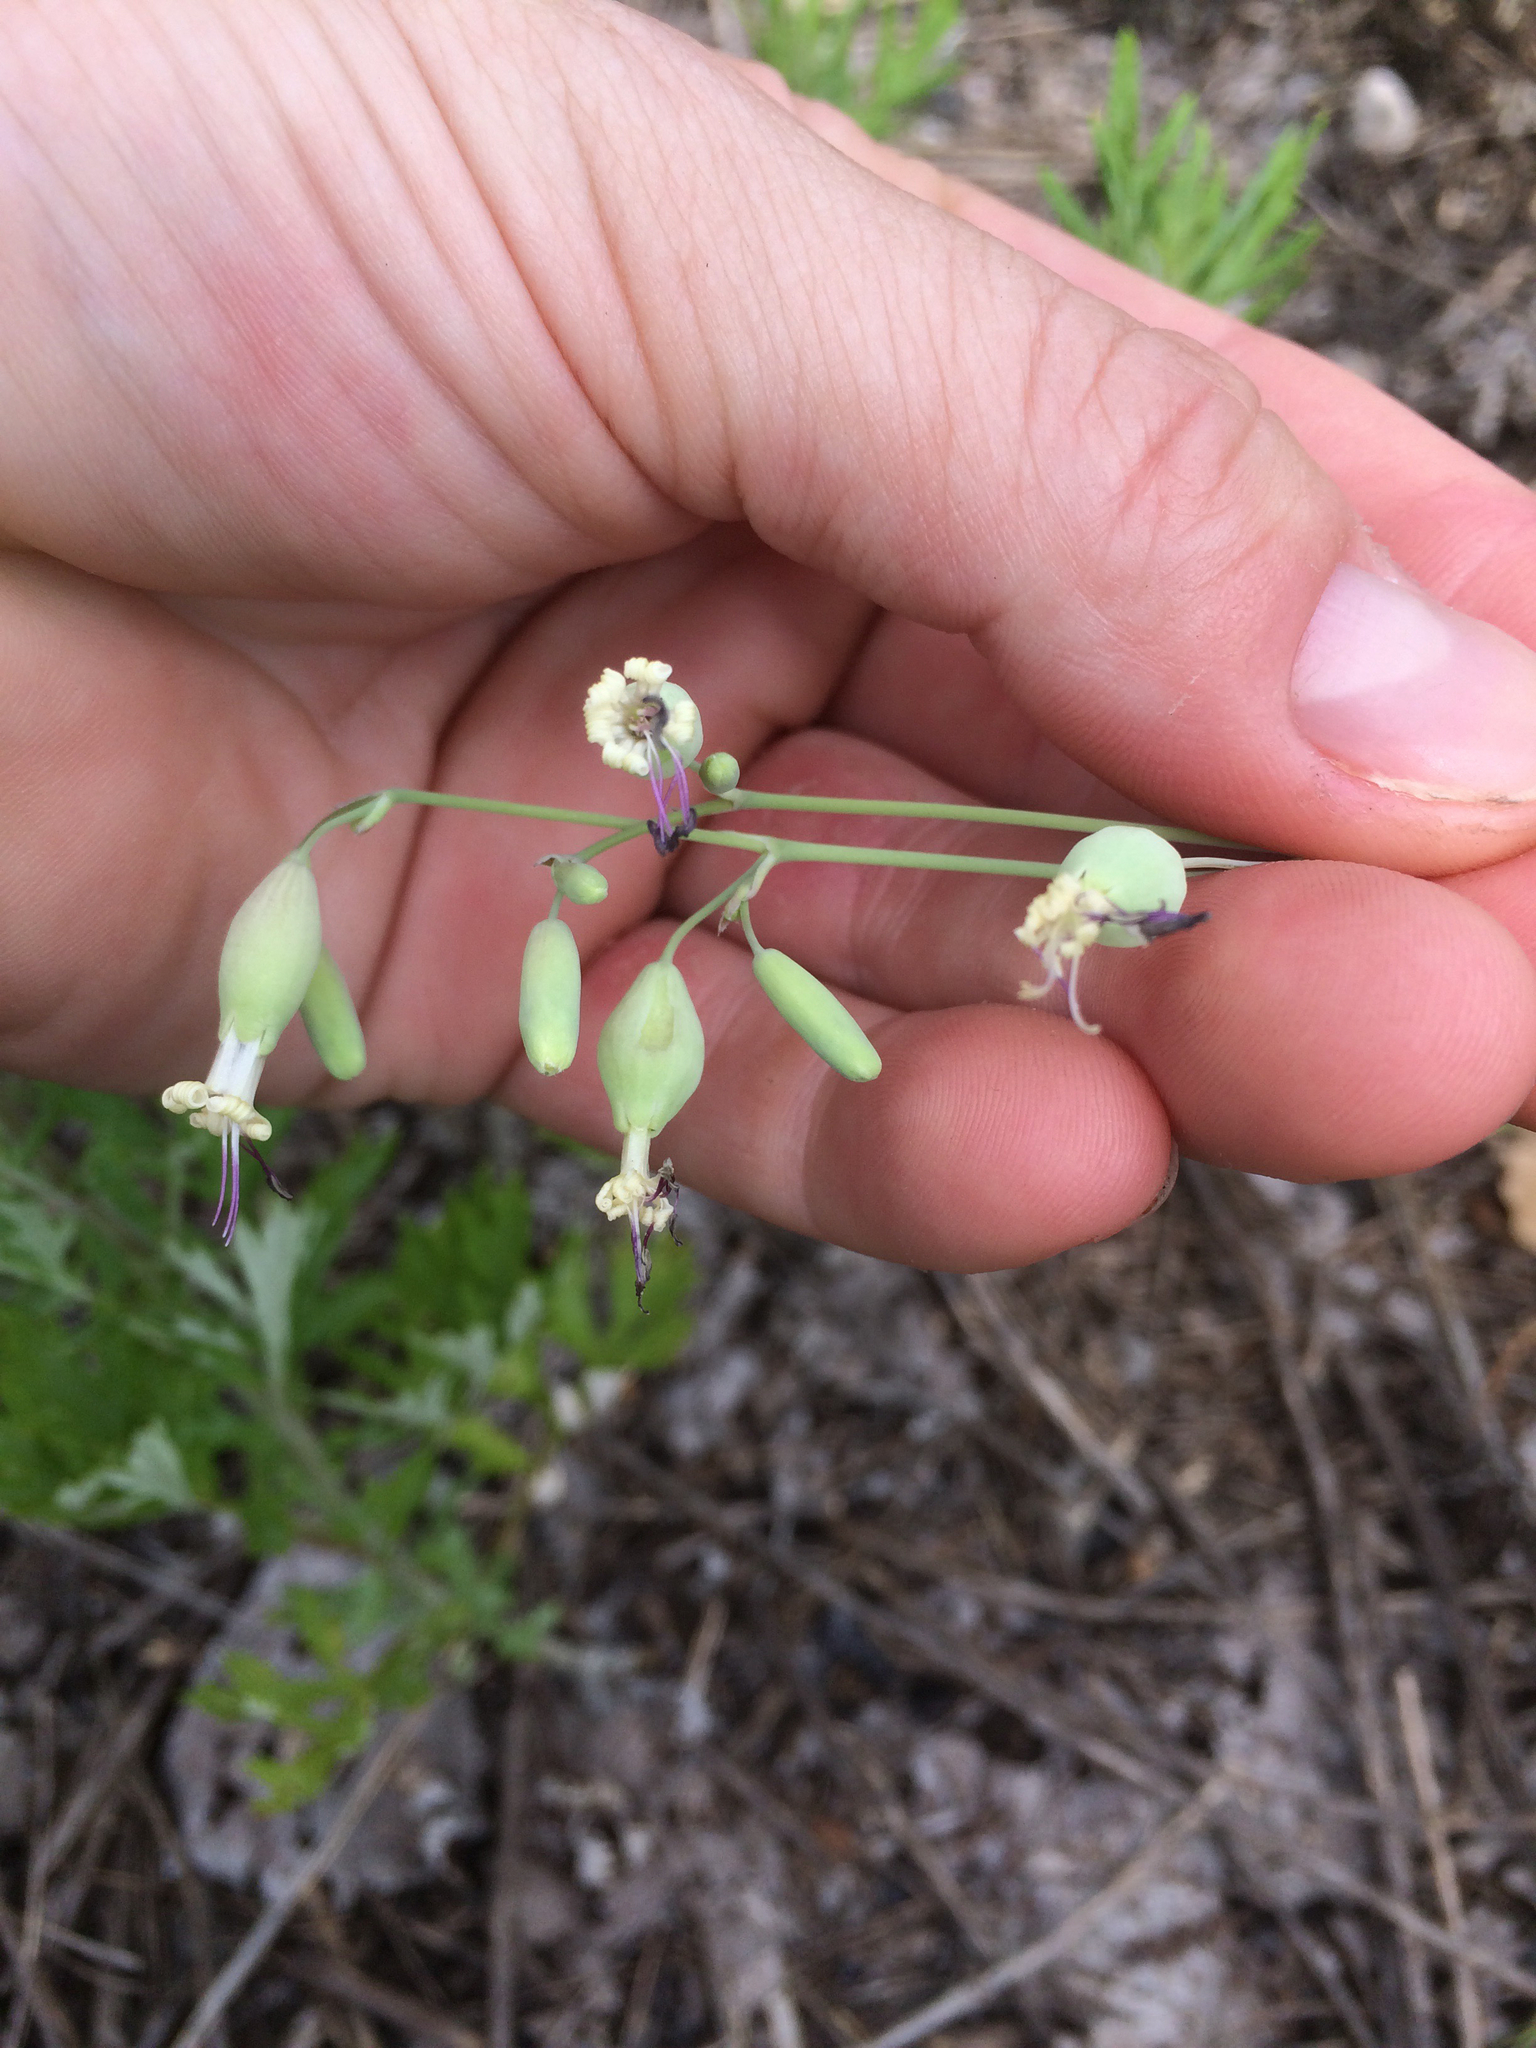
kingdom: Plantae
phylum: Tracheophyta
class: Magnoliopsida
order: Caryophyllales
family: Caryophyllaceae
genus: Silene
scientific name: Silene csereii
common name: Balkan catchfly
